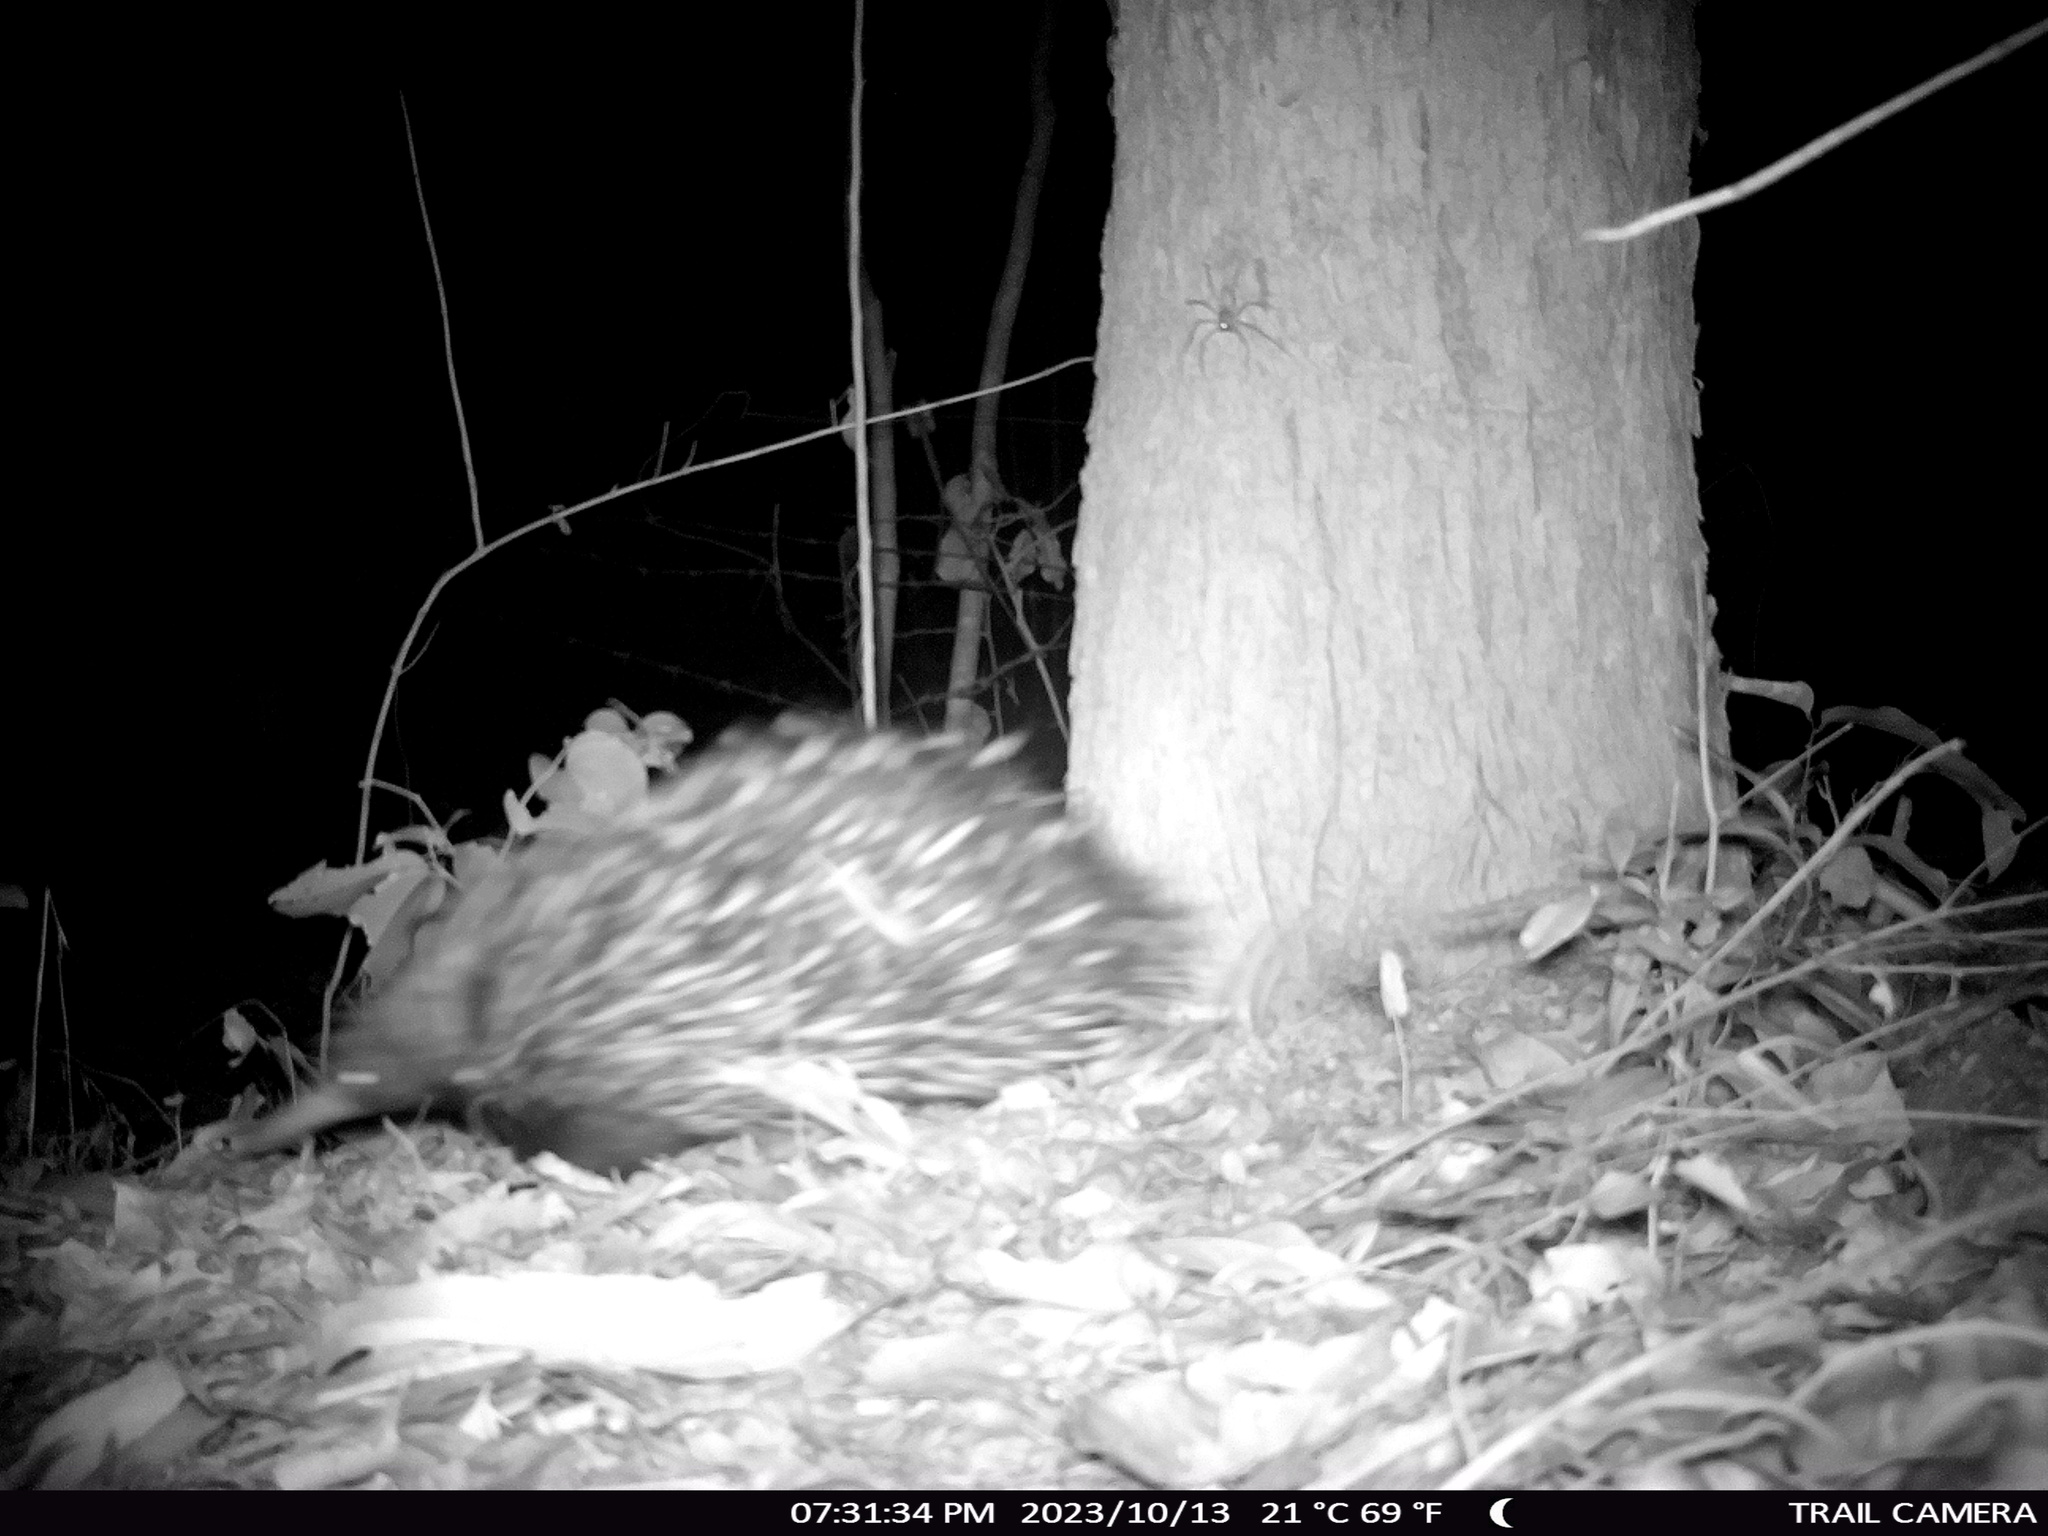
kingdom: Animalia
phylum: Chordata
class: Mammalia
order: Monotremata
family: Tachyglossidae
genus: Tachyglossus
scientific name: Tachyglossus aculeatus
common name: Short-beaked echidna
